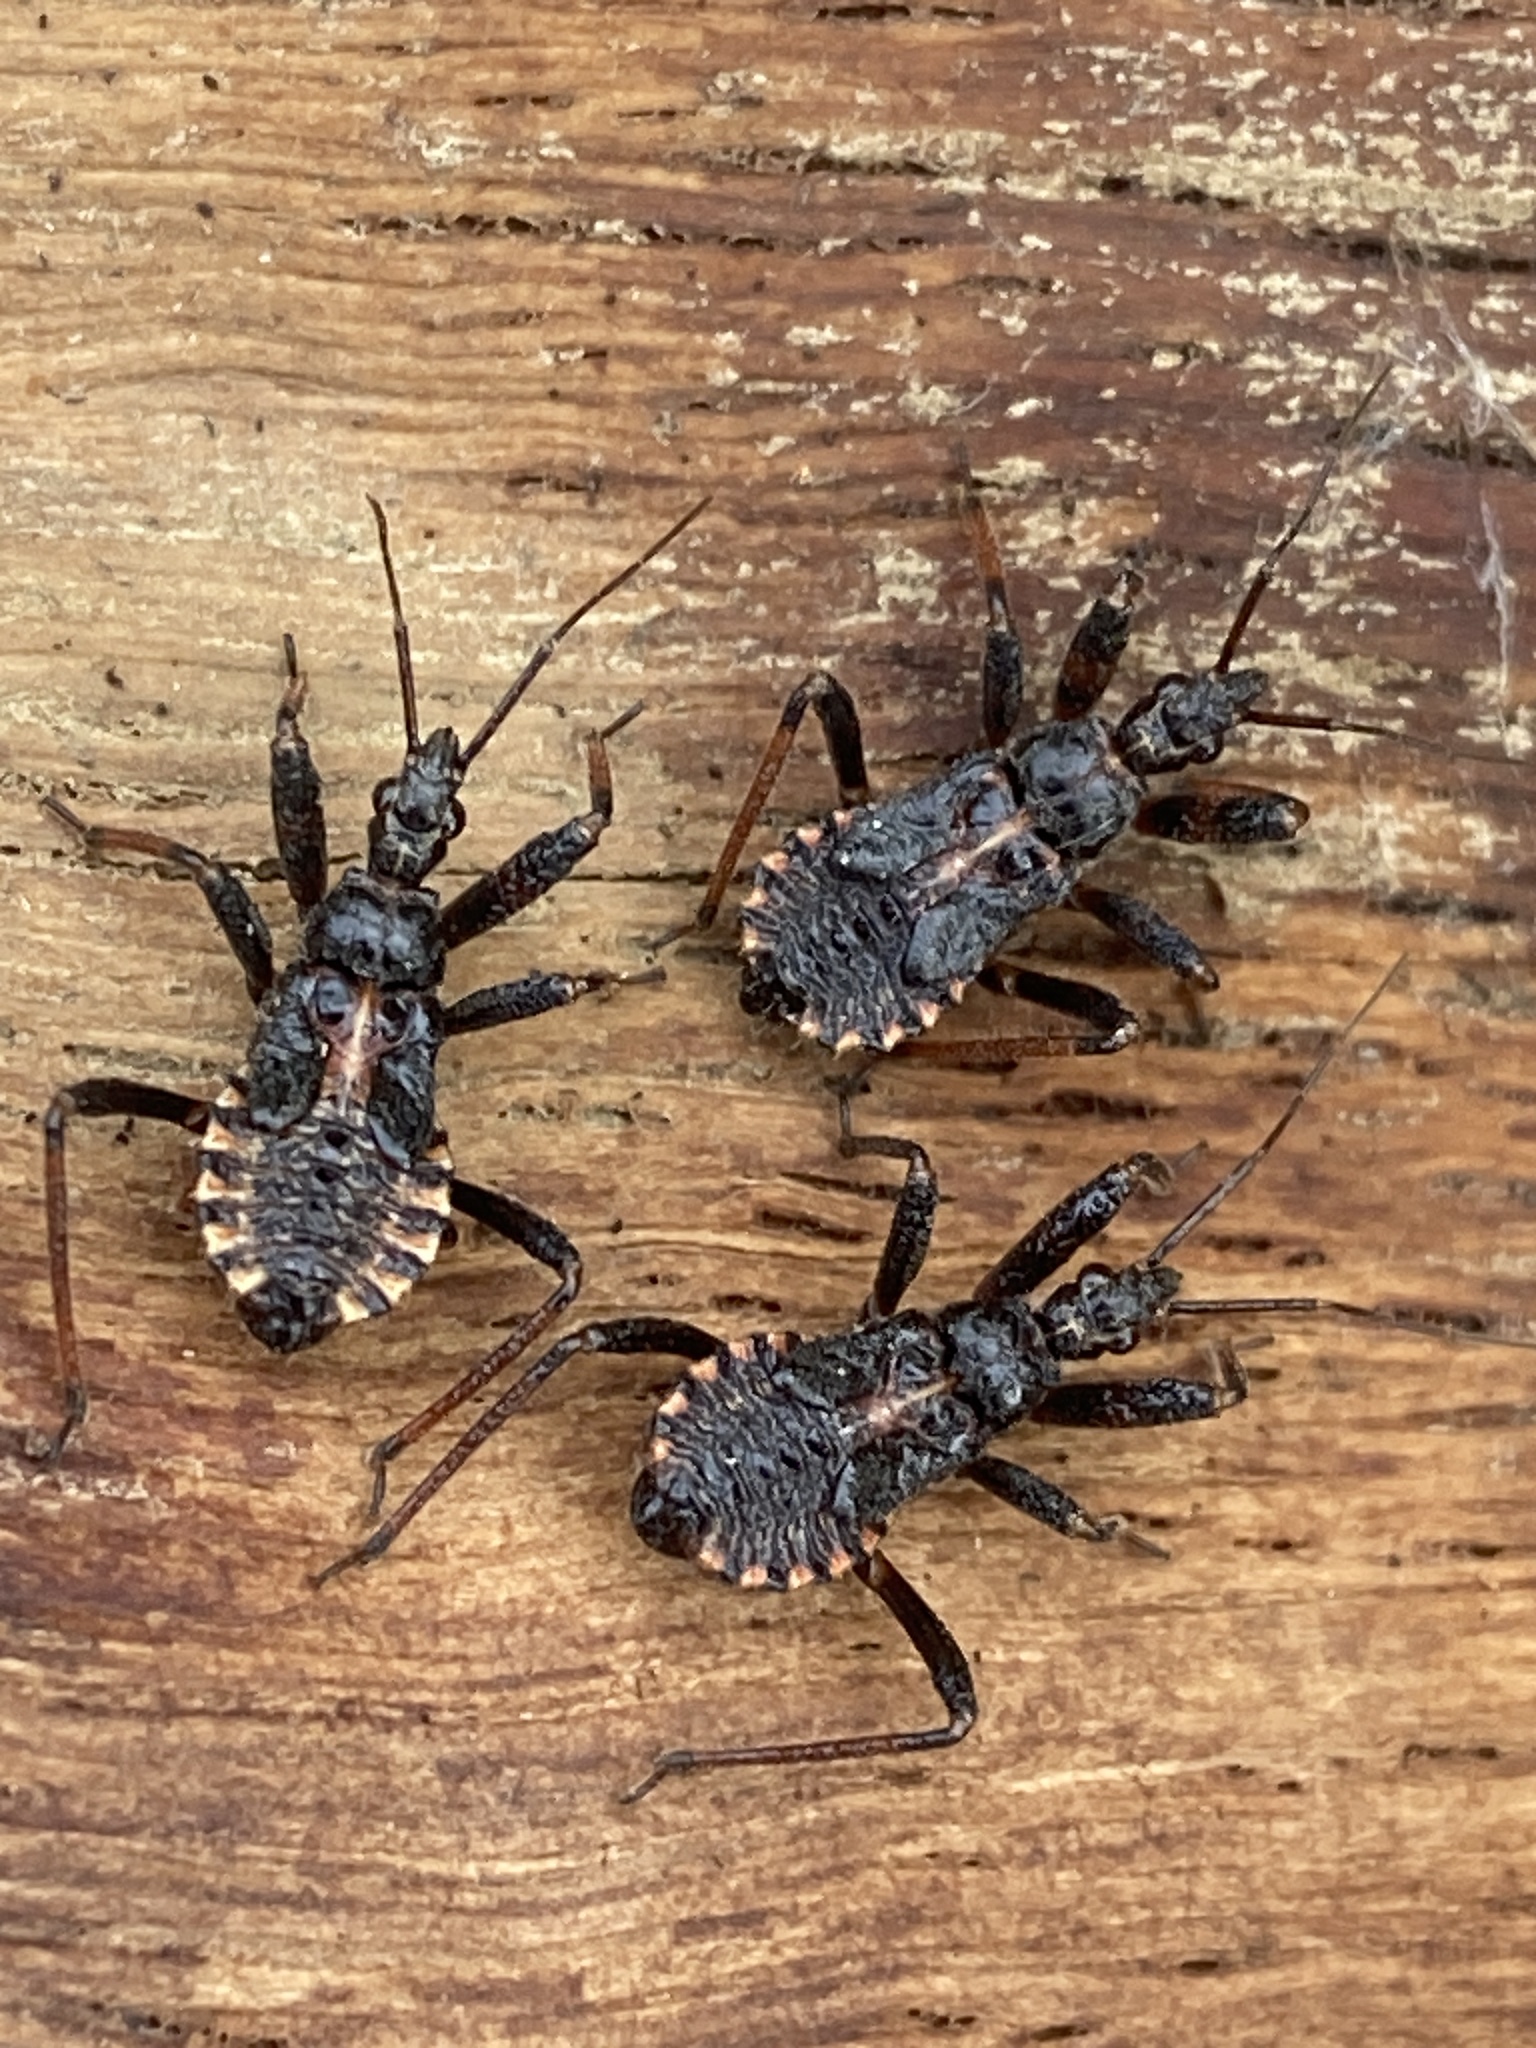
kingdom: Animalia
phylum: Arthropoda
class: Insecta
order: Hemiptera
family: Reduviidae
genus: Rhynocoris
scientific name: Rhynocoris annulatus
